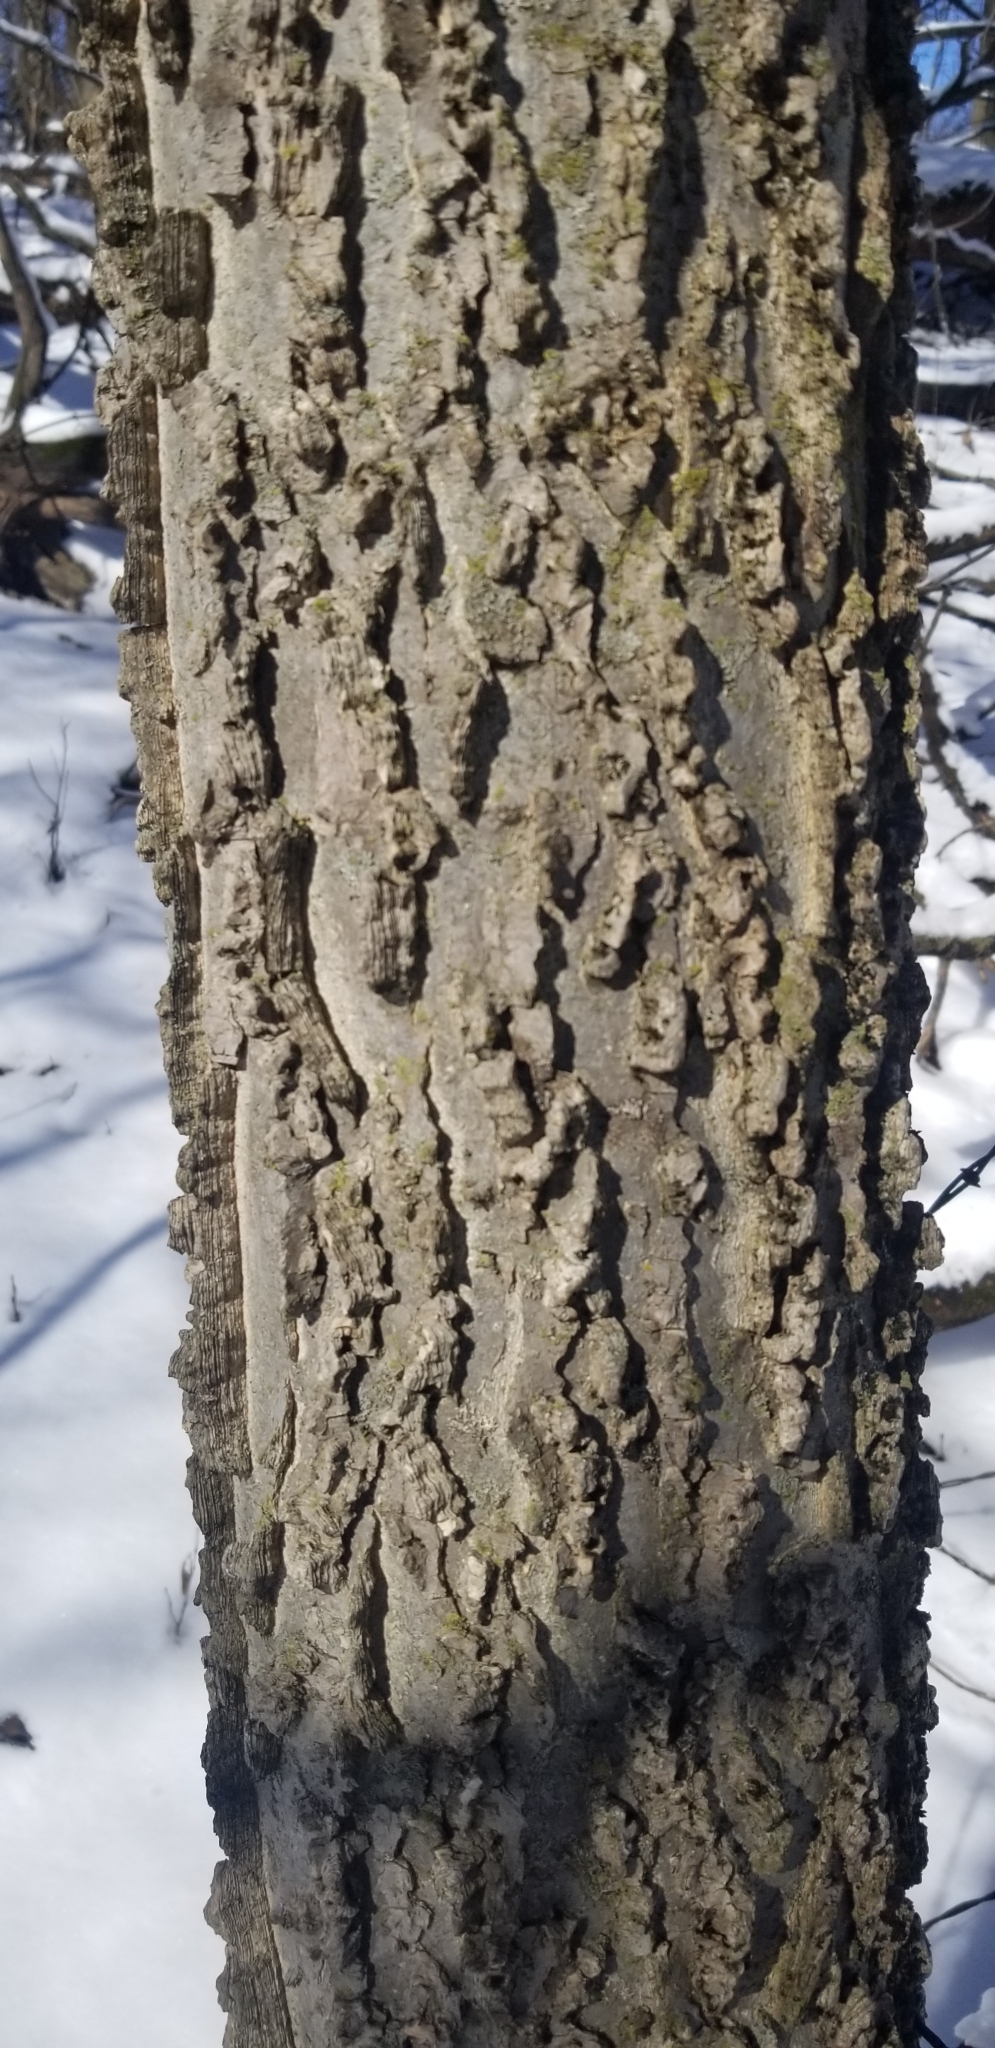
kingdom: Plantae
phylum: Tracheophyta
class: Magnoliopsida
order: Rosales
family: Cannabaceae
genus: Celtis
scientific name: Celtis occidentalis
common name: Common hackberry
